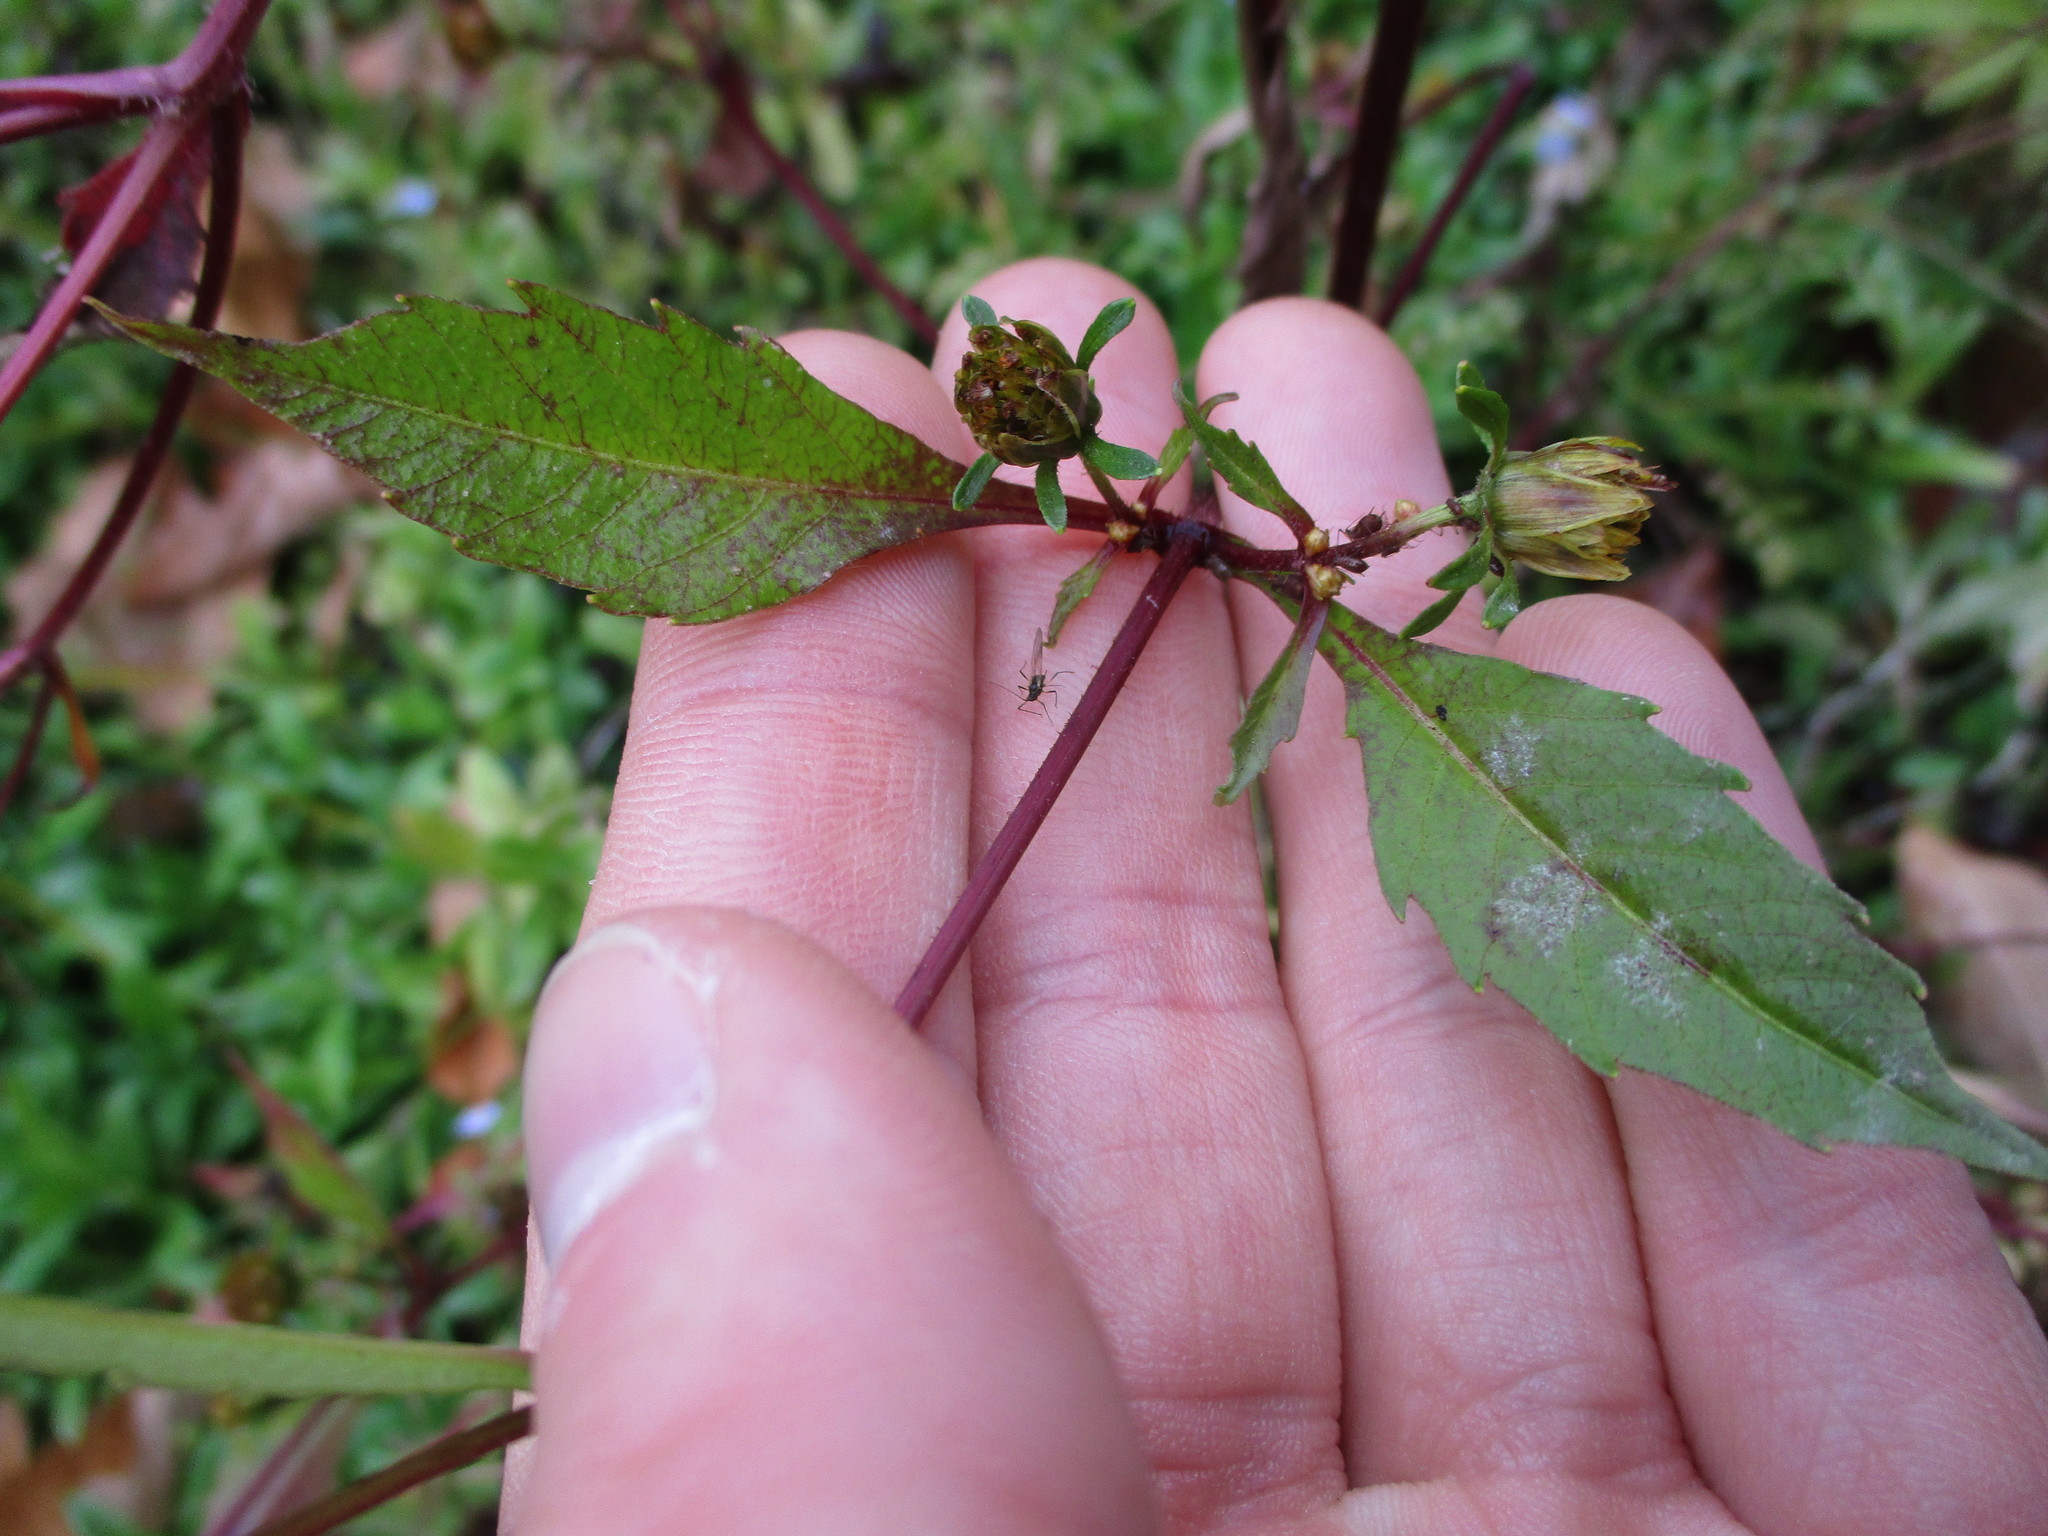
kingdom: Plantae
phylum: Tracheophyta
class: Magnoliopsida
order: Asterales
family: Asteraceae
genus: Bidens
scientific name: Bidens connata
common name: London bur-marigold
